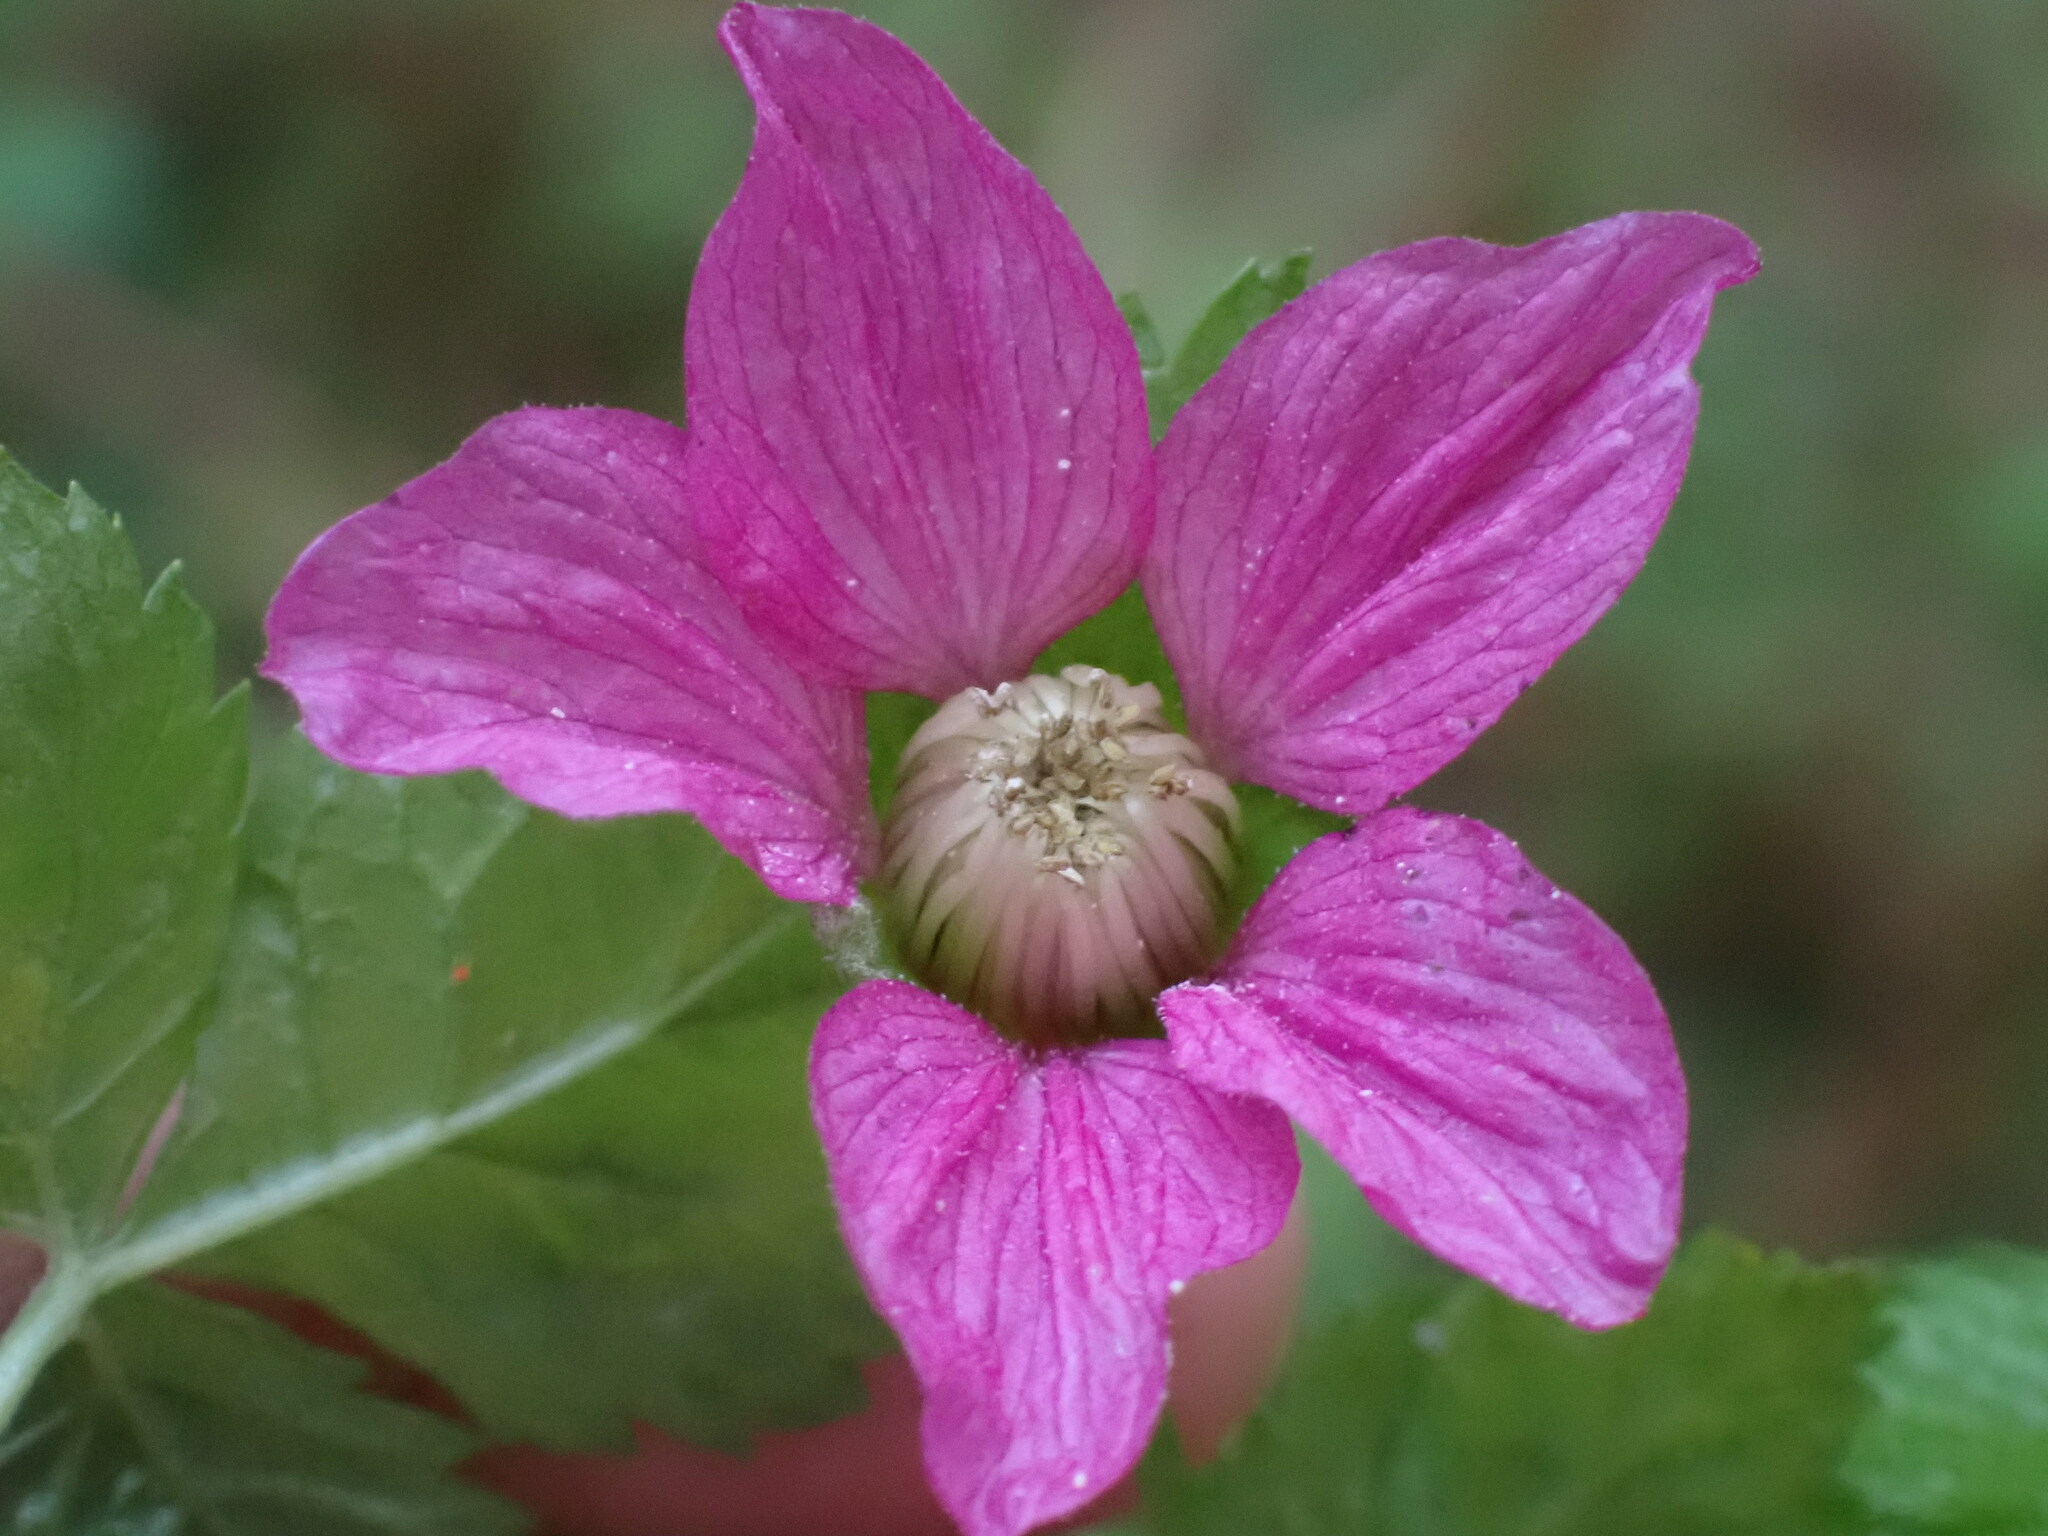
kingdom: Plantae
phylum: Tracheophyta
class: Magnoliopsida
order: Rosales
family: Rosaceae
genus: Rubus
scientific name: Rubus spectabilis
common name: Salmonberry
